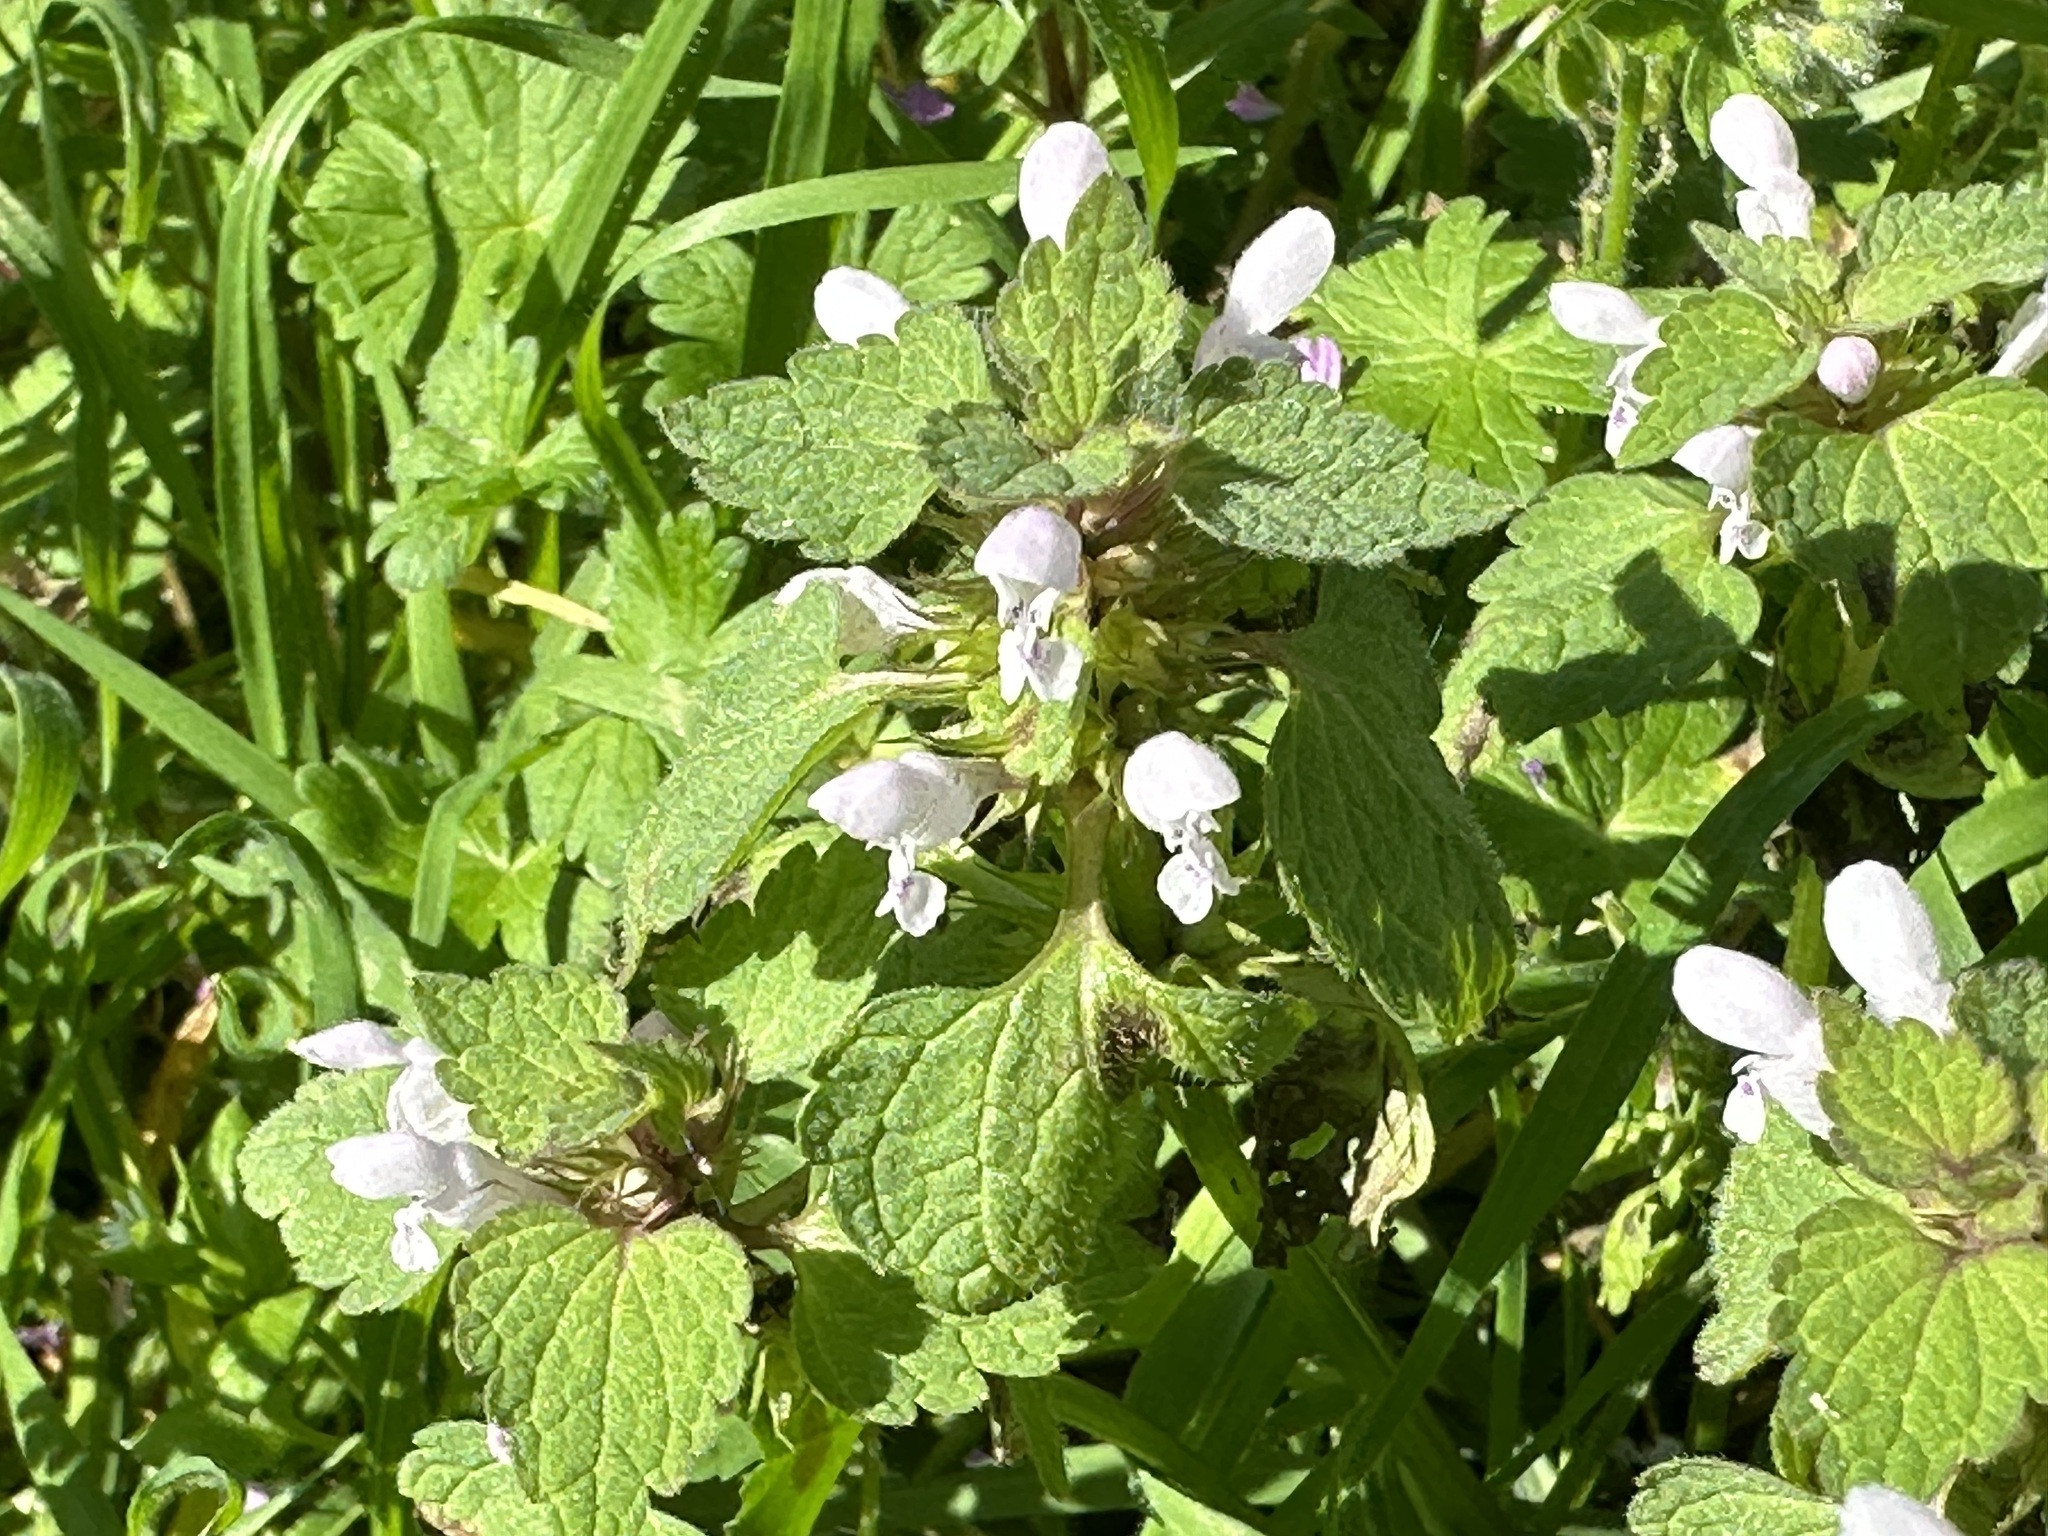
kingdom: Plantae
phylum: Tracheophyta
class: Magnoliopsida
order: Lamiales
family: Lamiaceae
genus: Lamium
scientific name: Lamium purpureum
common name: Red dead-nettle
